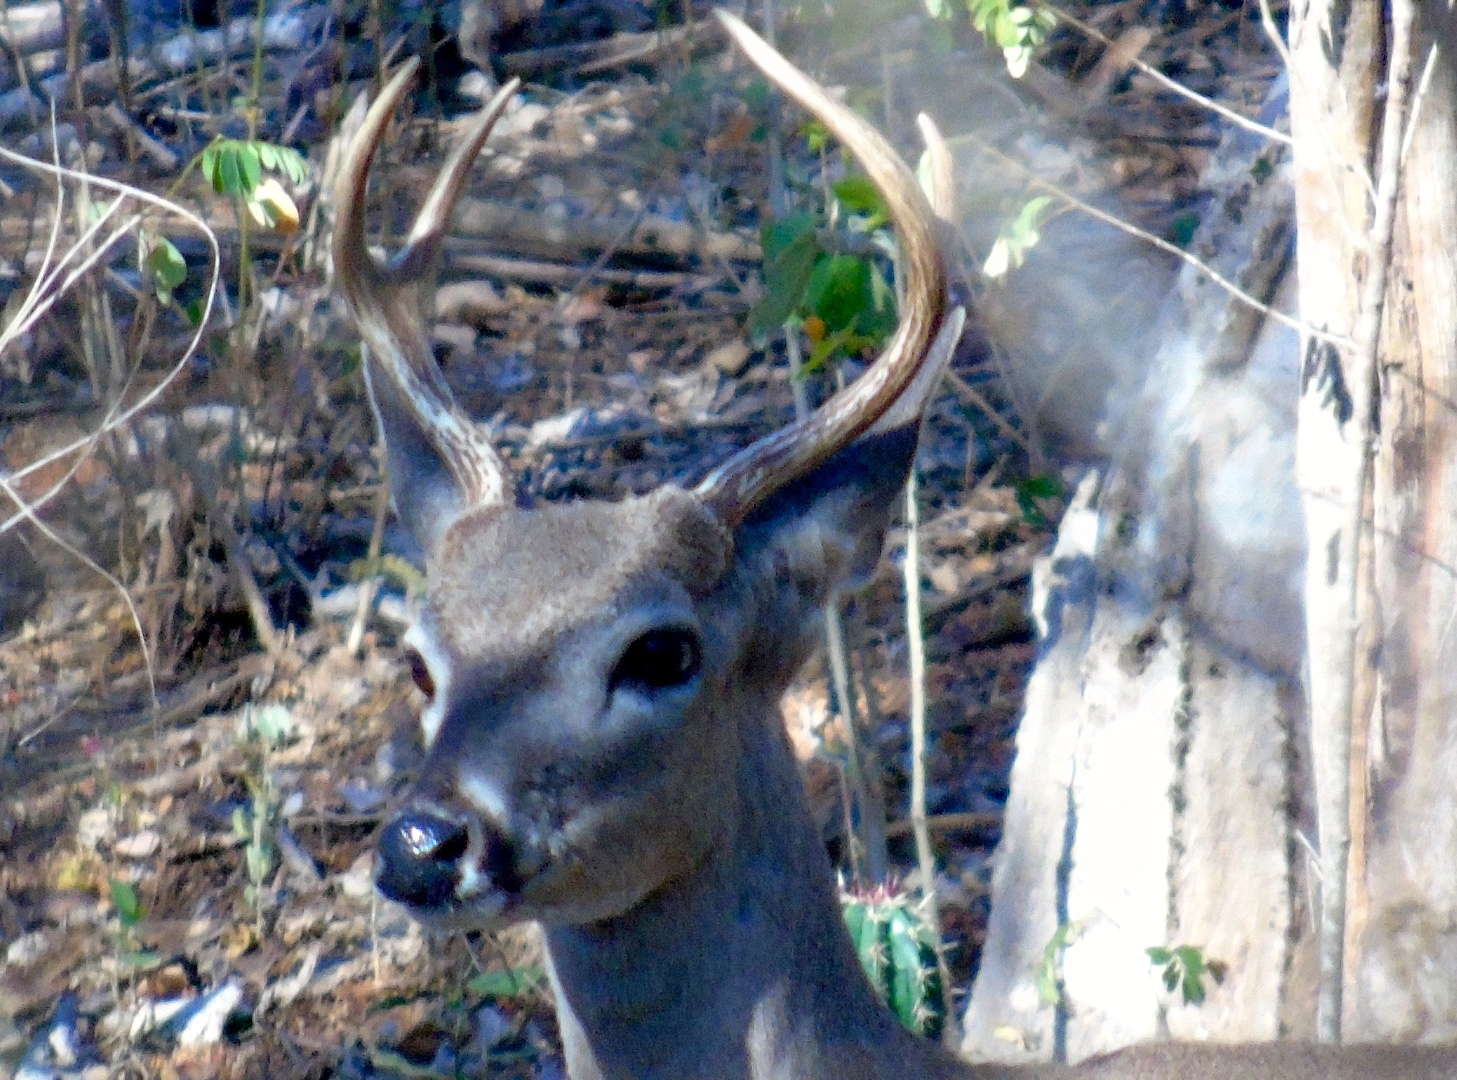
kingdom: Animalia
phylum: Chordata
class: Mammalia
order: Artiodactyla
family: Cervidae
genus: Odocoileus
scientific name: Odocoileus virginianus
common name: White-tailed deer
